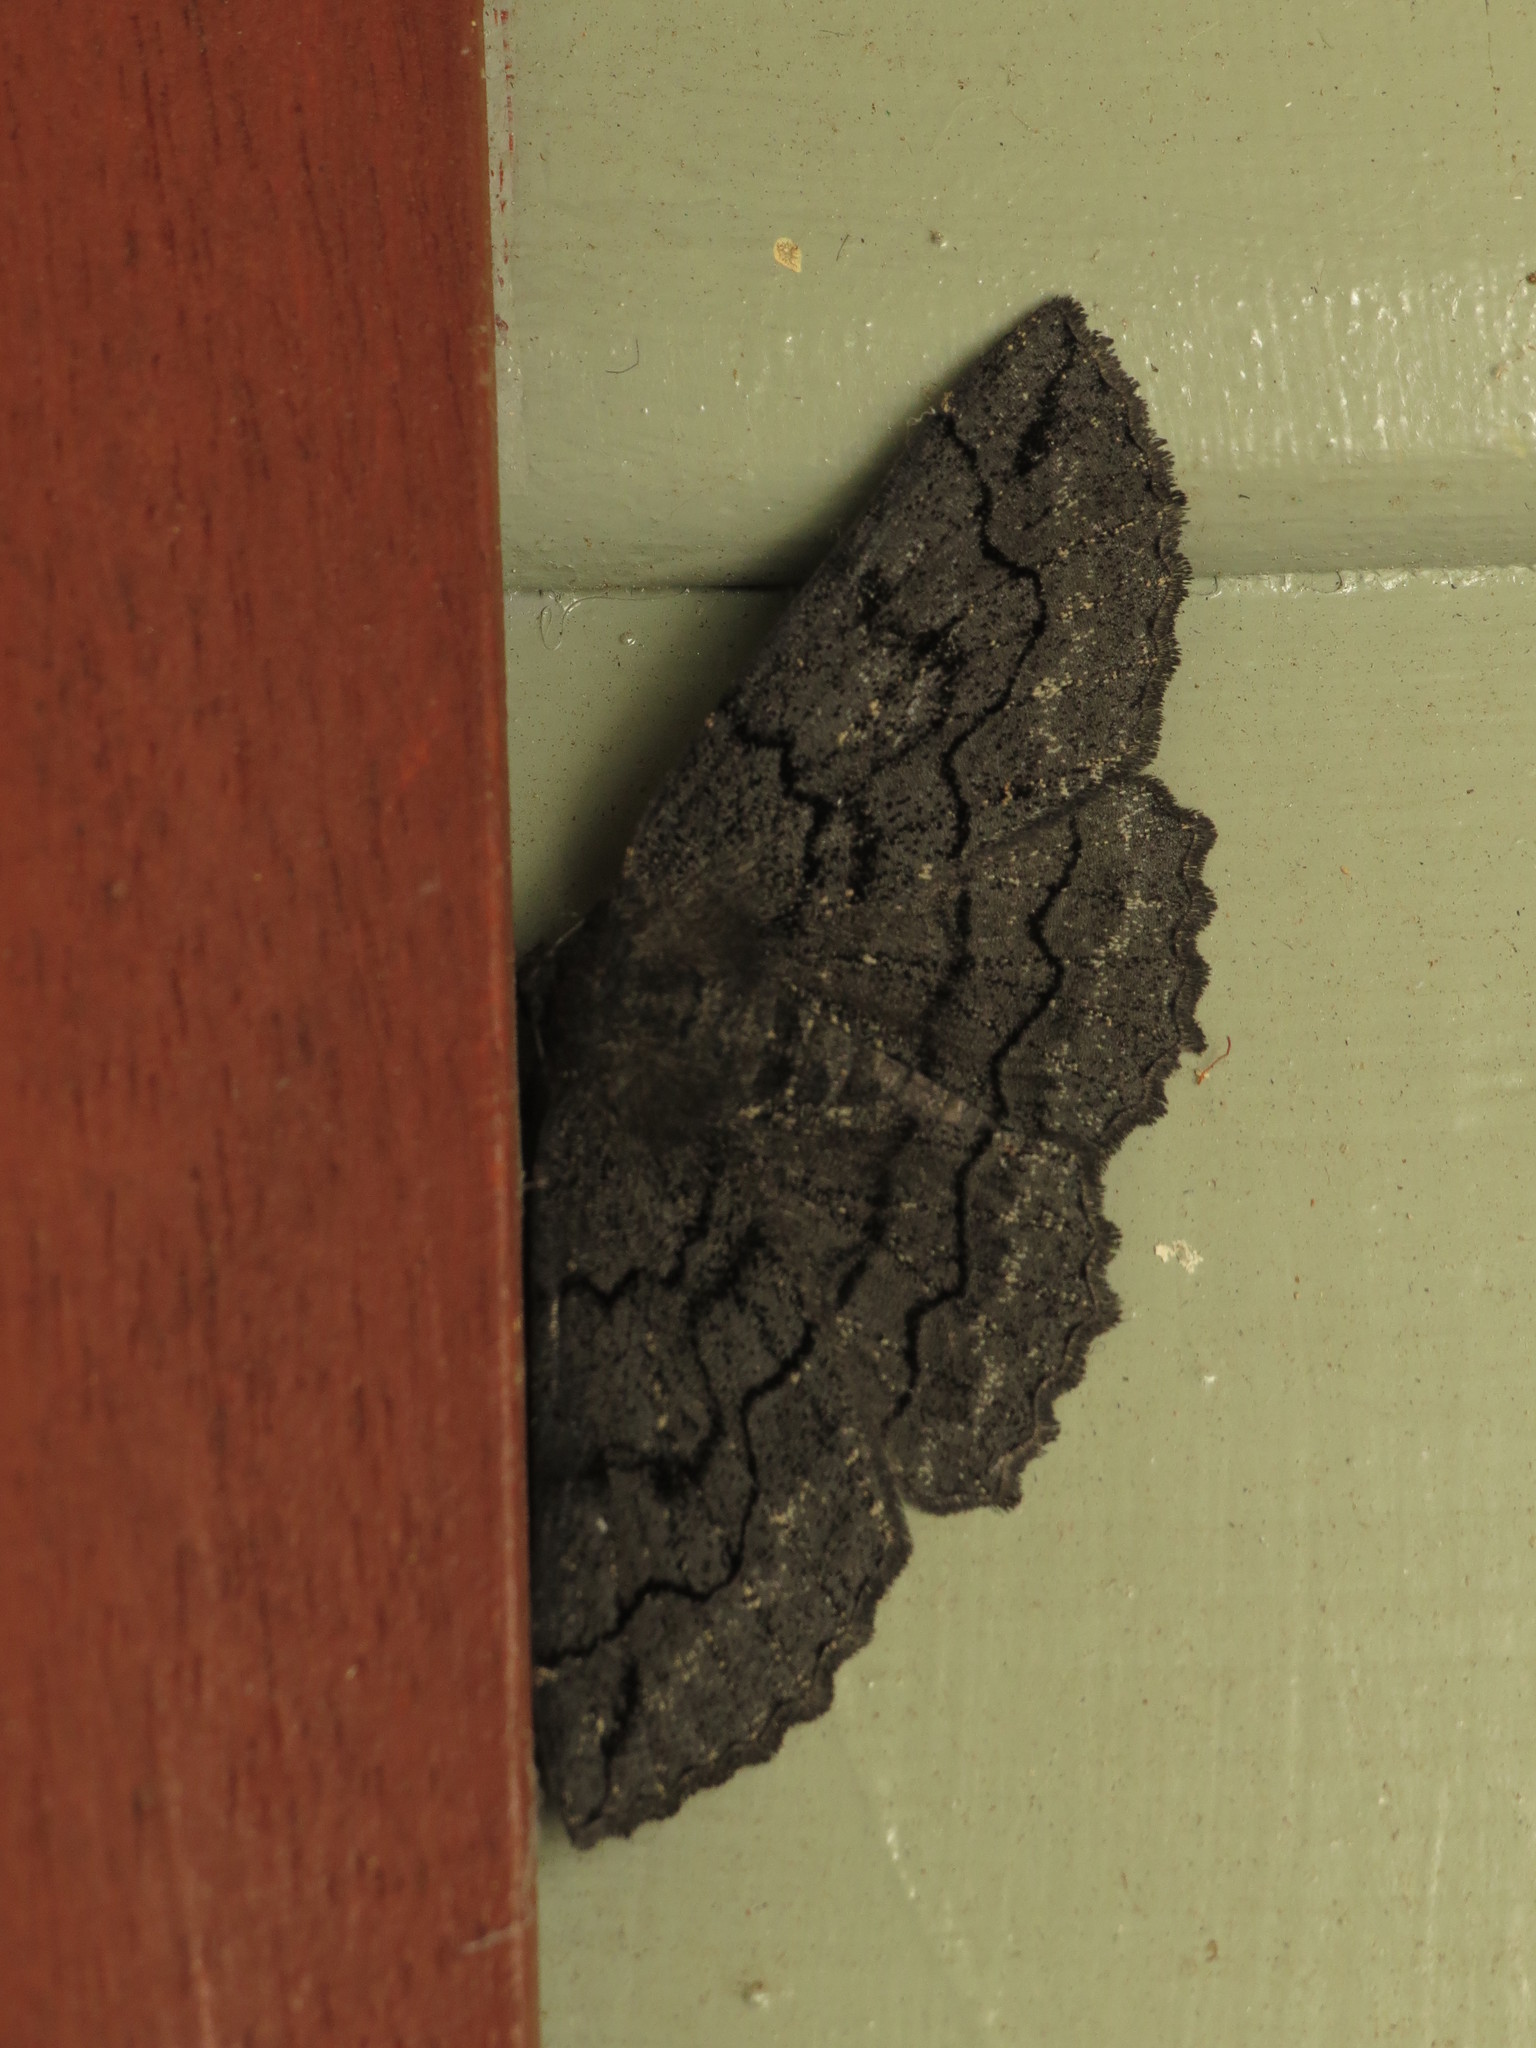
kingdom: Animalia
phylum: Arthropoda
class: Insecta
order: Lepidoptera
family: Geometridae
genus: Melanodes
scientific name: Melanodes anthracitaria
